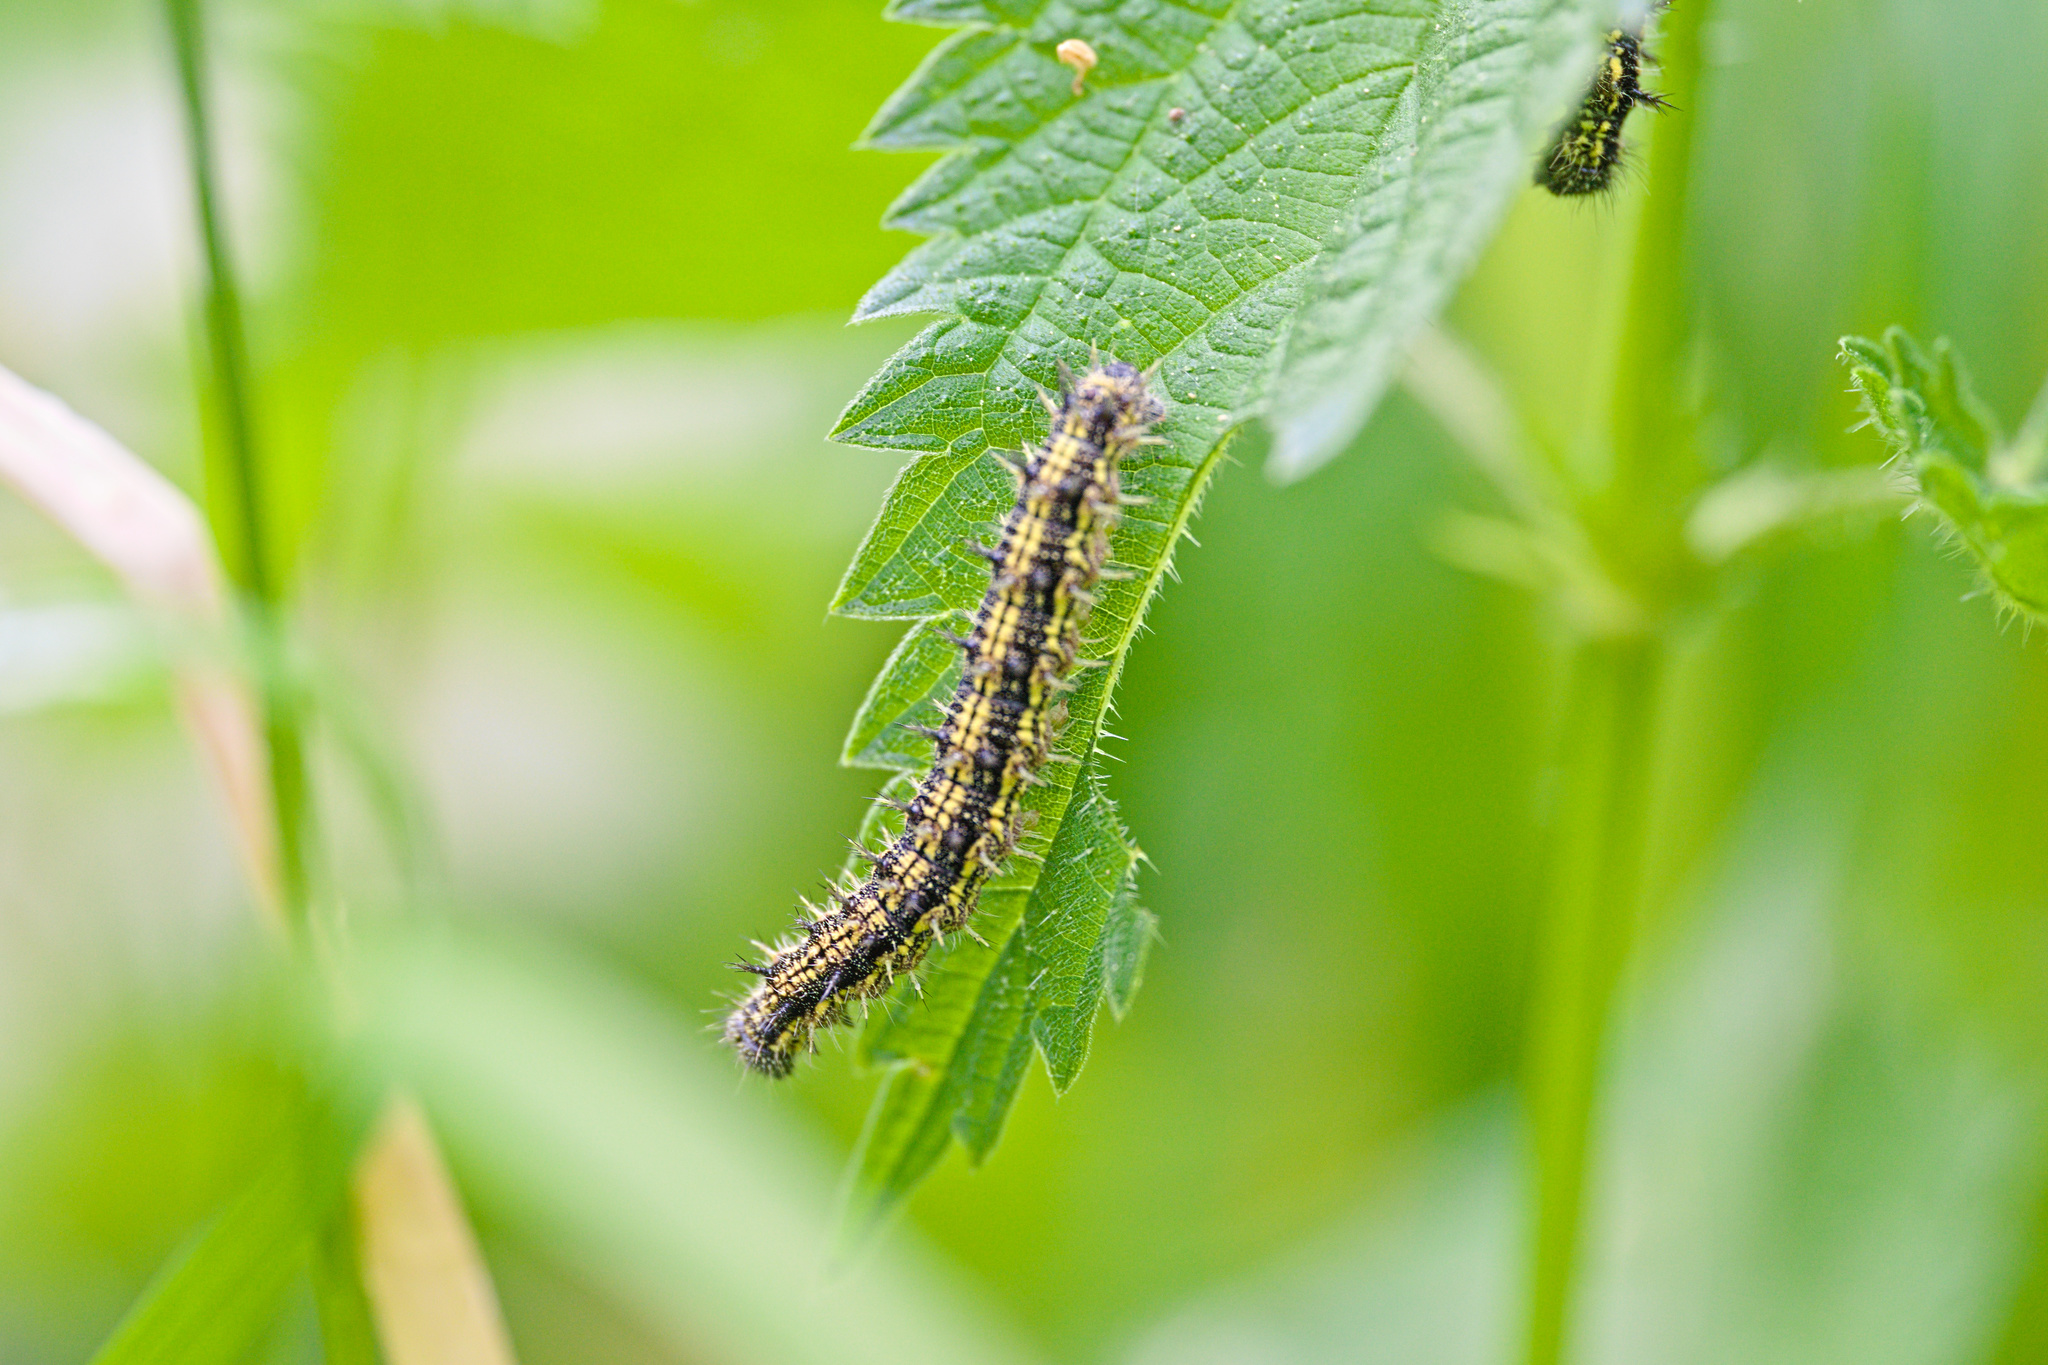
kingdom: Animalia
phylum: Arthropoda
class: Insecta
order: Lepidoptera
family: Nymphalidae
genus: Aglais
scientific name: Aglais urticae
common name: Small tortoiseshell
